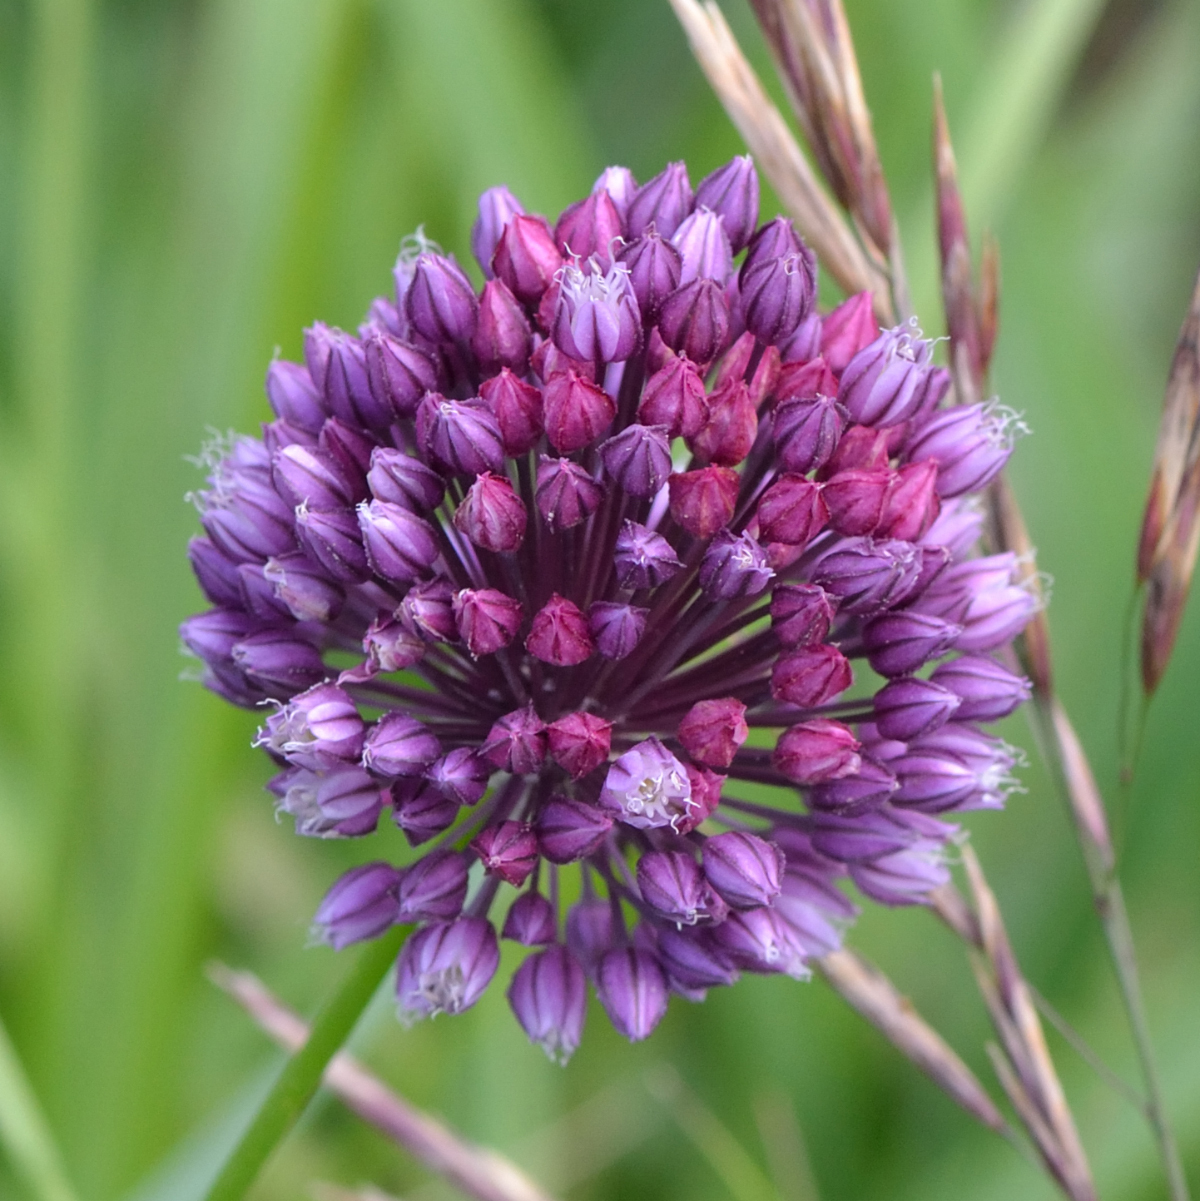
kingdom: Plantae
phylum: Tracheophyta
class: Liliopsida
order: Asparagales
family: Amaryllidaceae
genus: Allium
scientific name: Allium rotundum
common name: Sand leek
